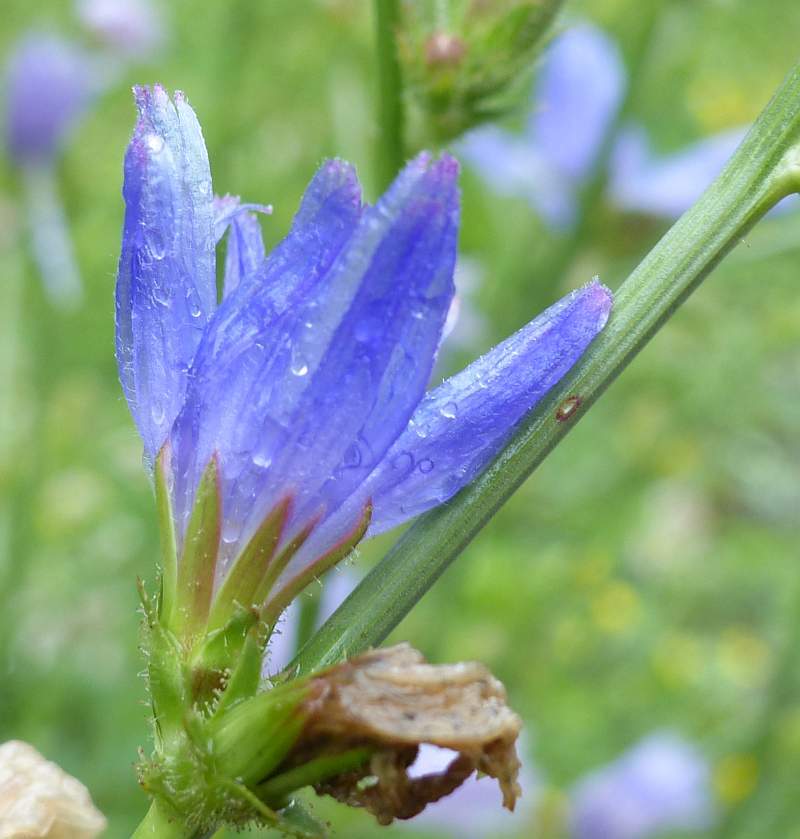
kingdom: Plantae
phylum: Tracheophyta
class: Magnoliopsida
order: Asterales
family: Asteraceae
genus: Cichorium
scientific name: Cichorium intybus
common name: Chicory
